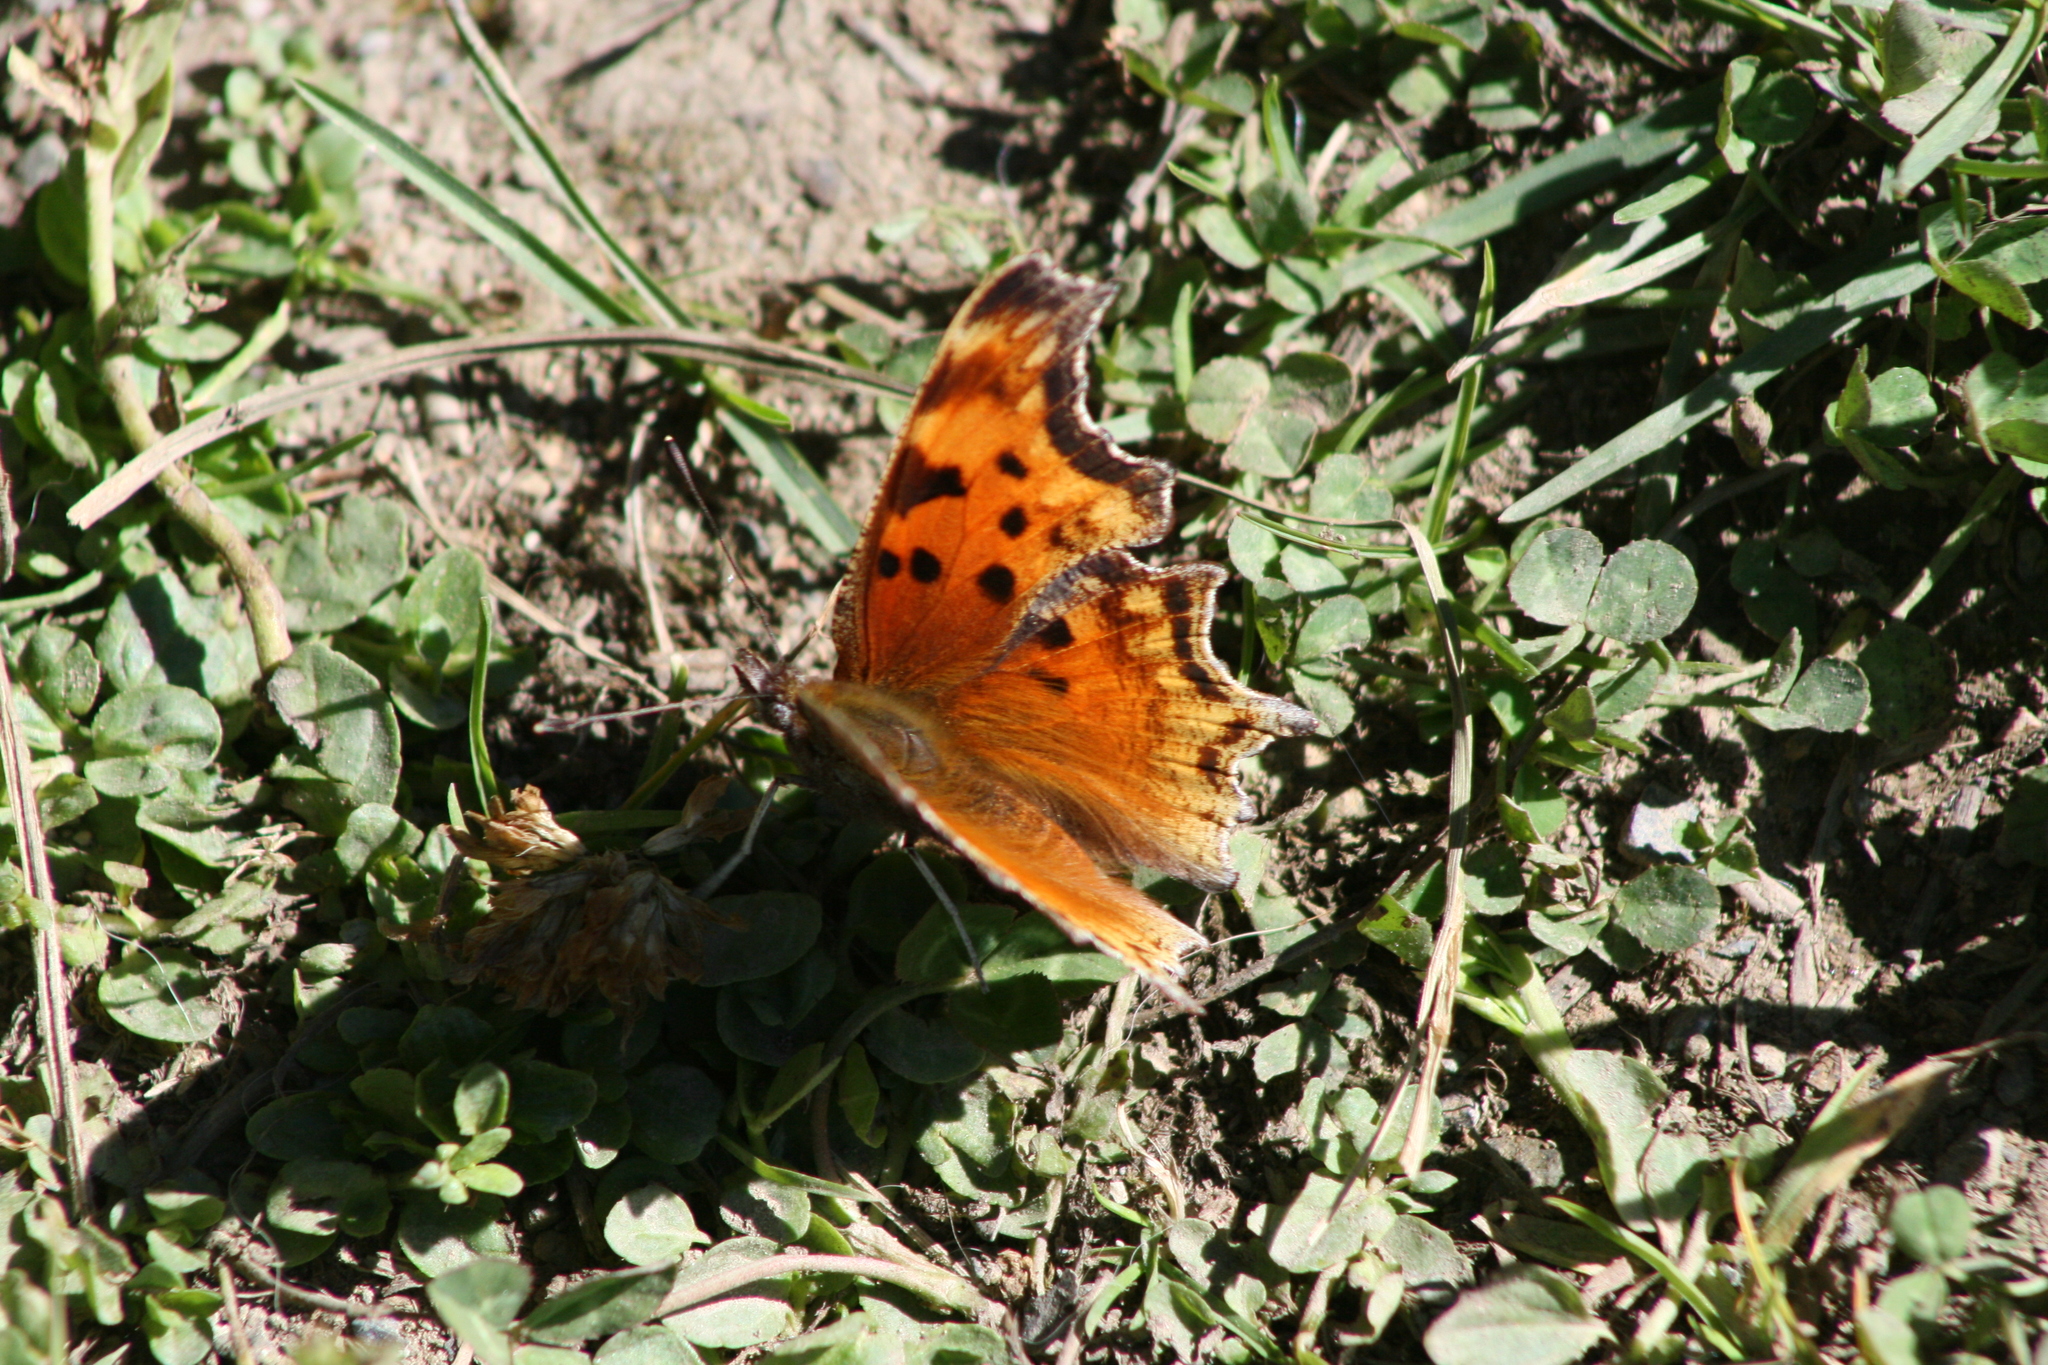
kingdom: Animalia
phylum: Arthropoda
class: Insecta
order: Lepidoptera
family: Nymphalidae
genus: Polygonia
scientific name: Polygonia gracilis
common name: Hoary comma
